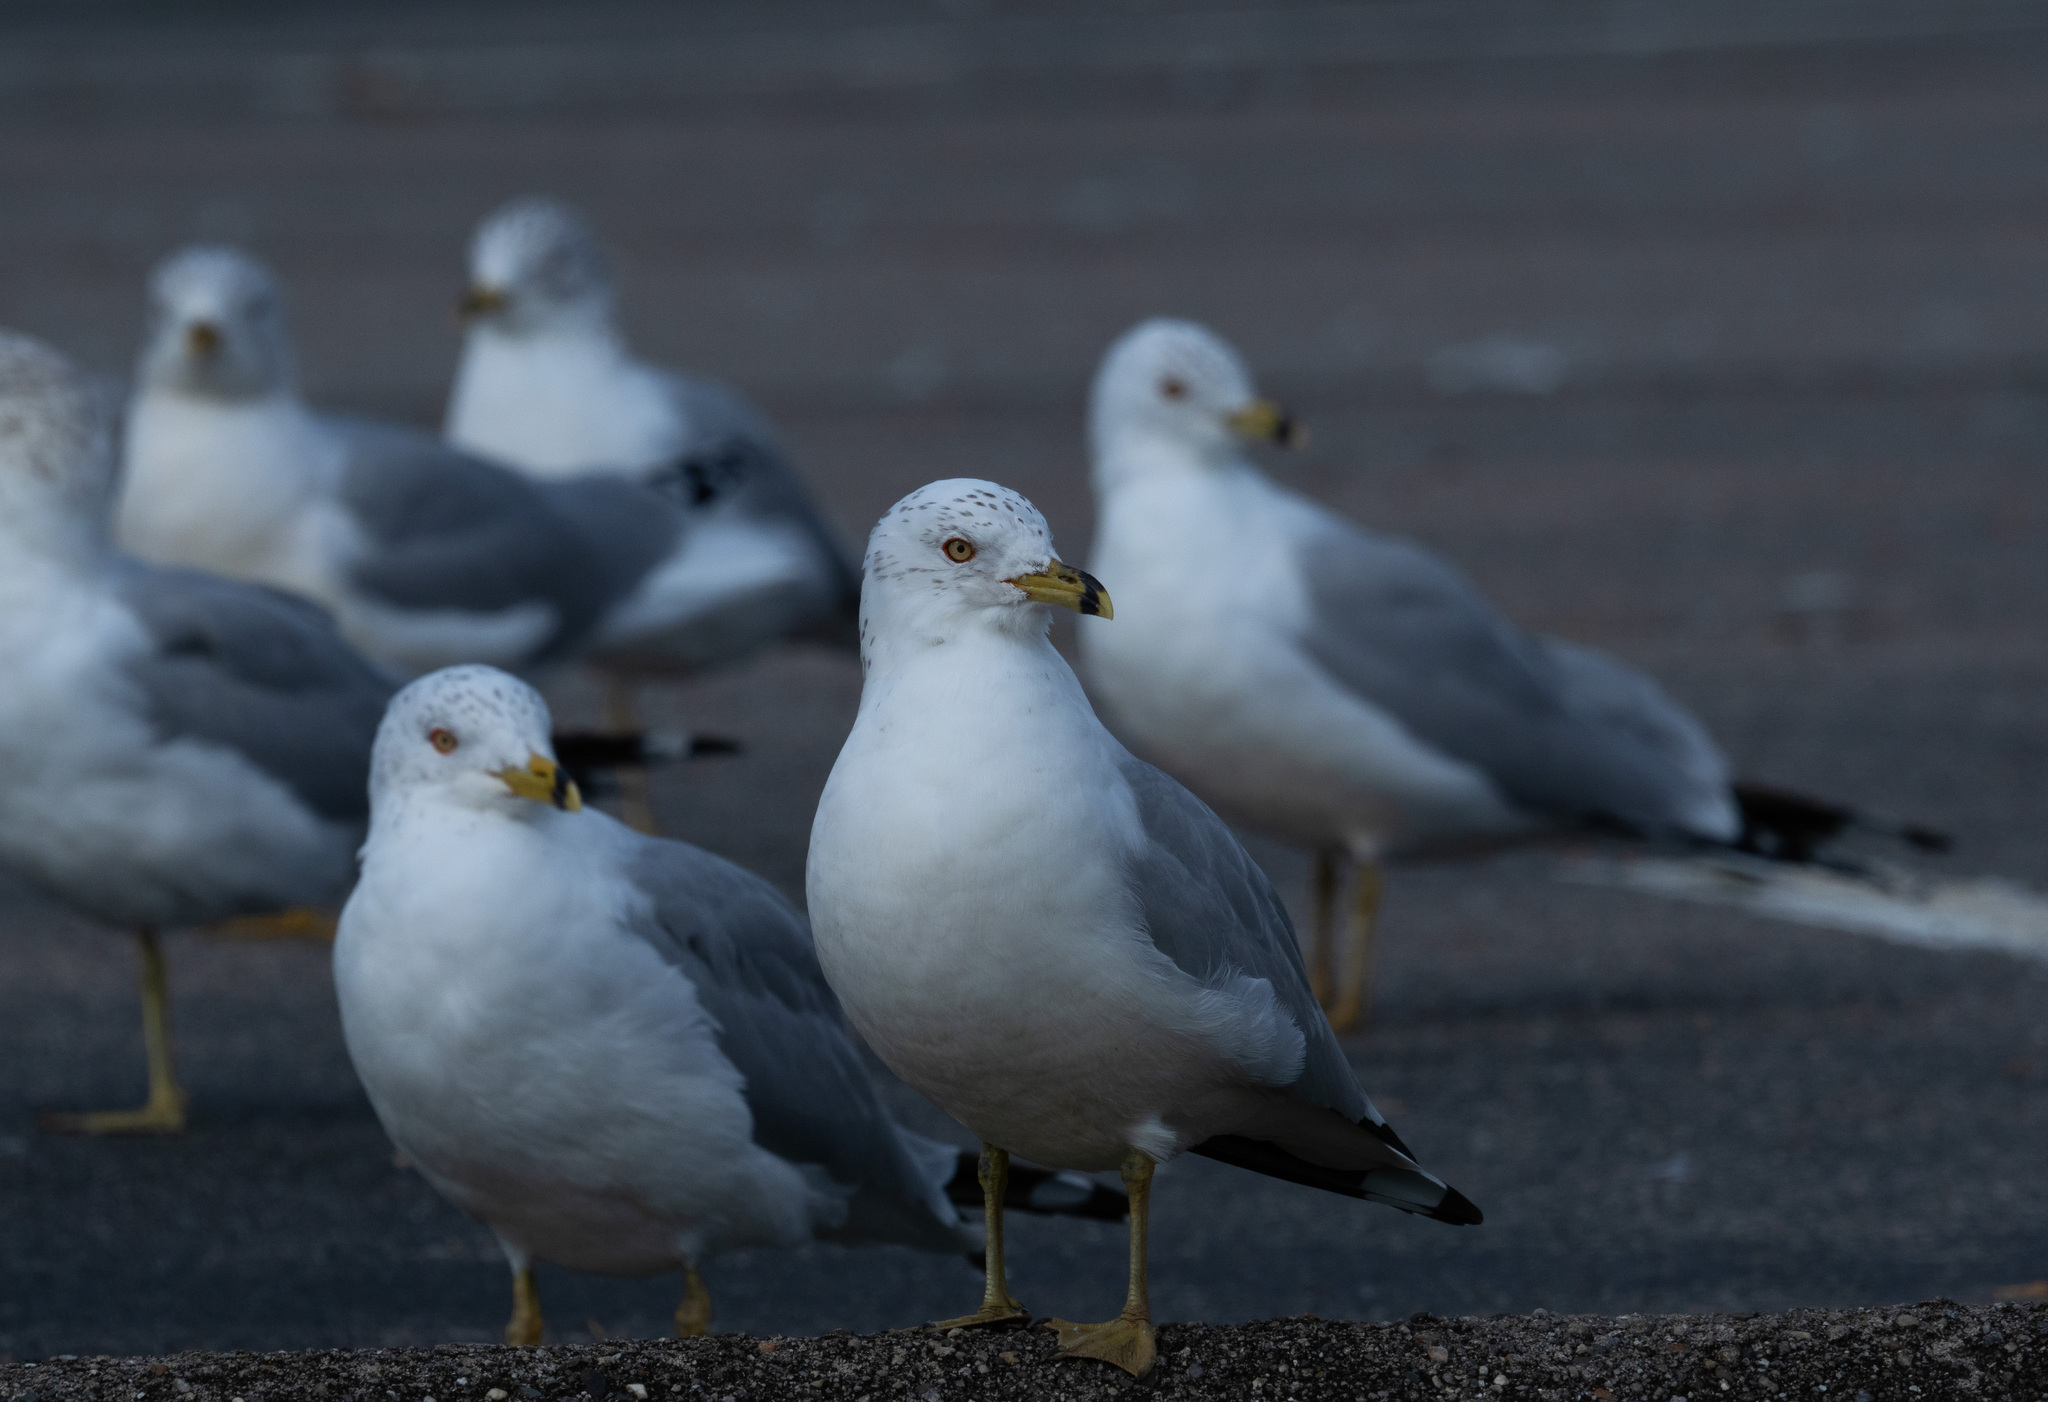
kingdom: Animalia
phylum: Chordata
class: Aves
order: Charadriiformes
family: Laridae
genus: Larus
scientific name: Larus delawarensis
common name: Ring-billed gull
